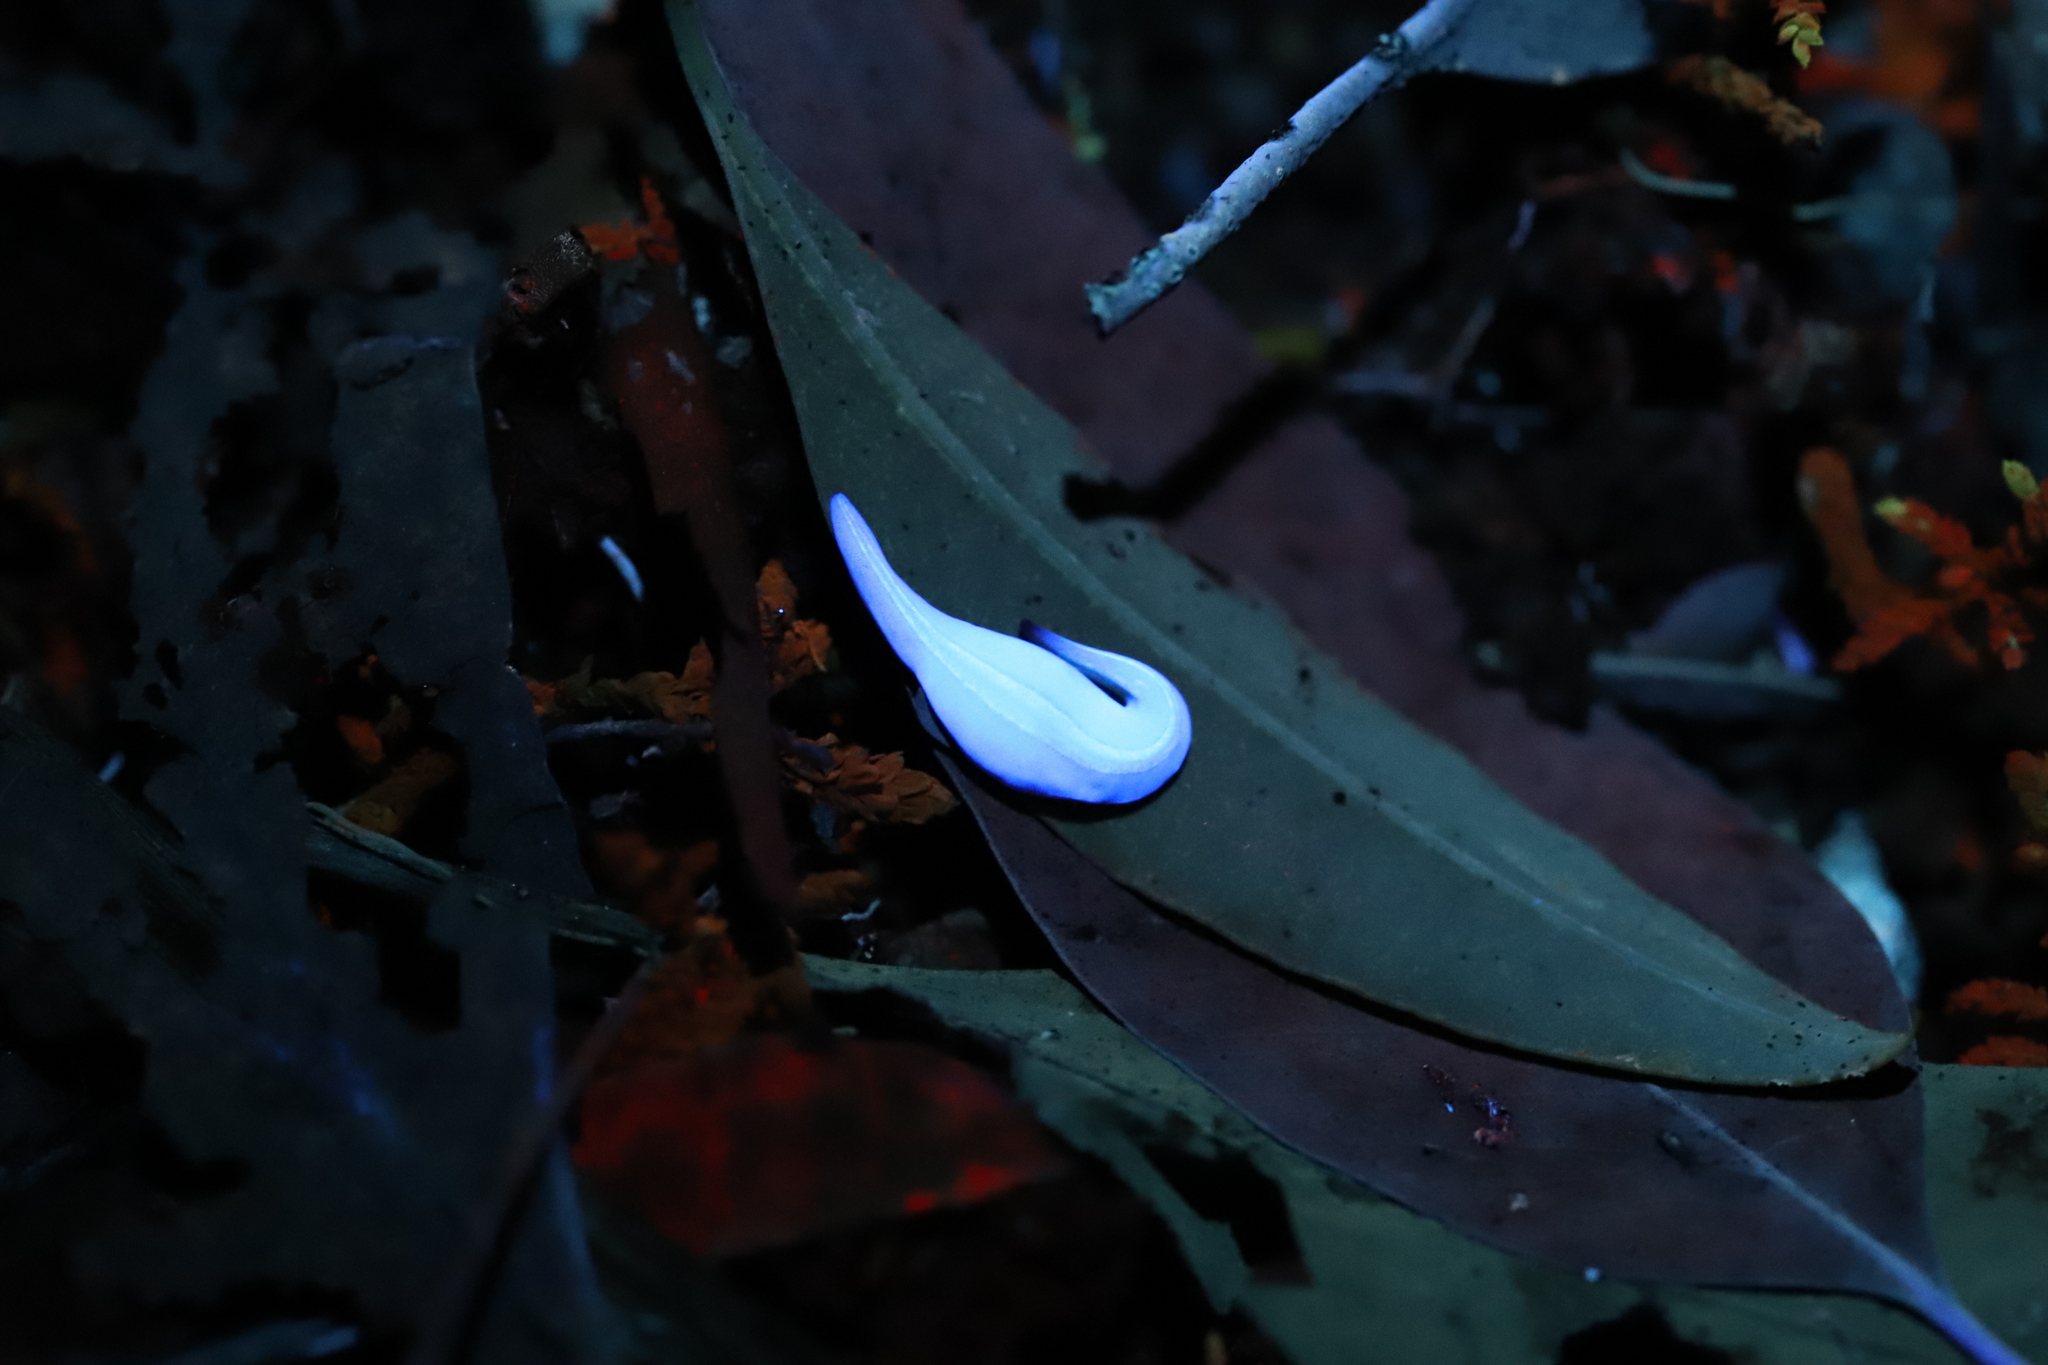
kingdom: Animalia
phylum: Platyhelminthes
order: Tricladida
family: Geoplanidae
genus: Lenkunya
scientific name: Lenkunya adae
